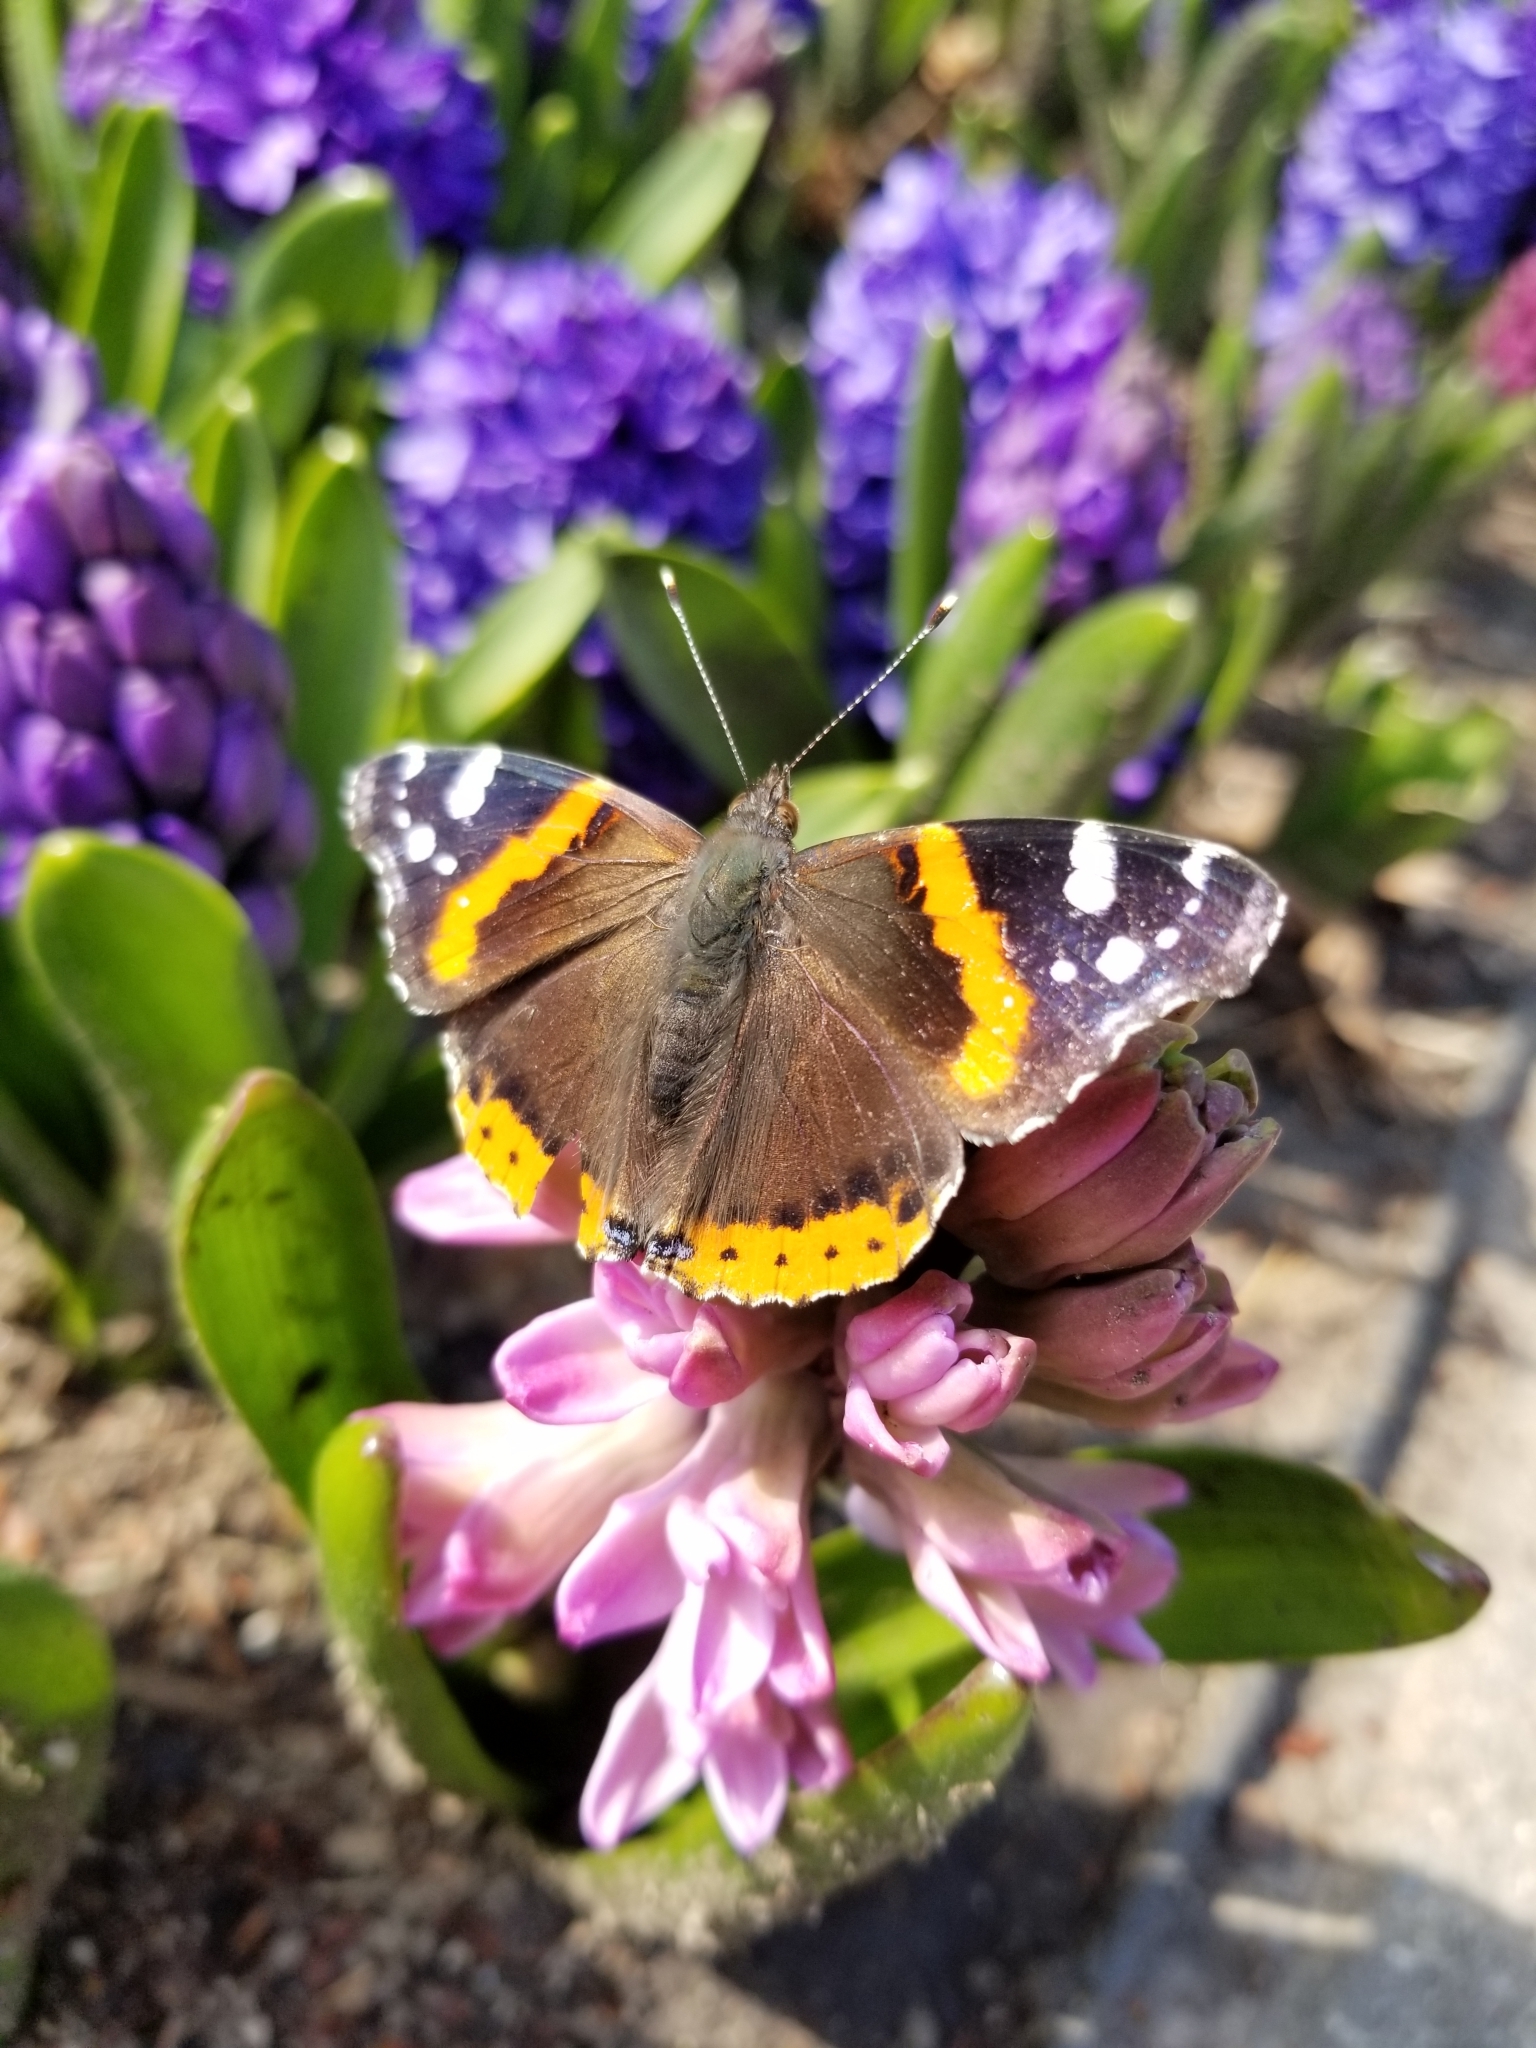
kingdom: Animalia
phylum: Arthropoda
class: Insecta
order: Lepidoptera
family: Nymphalidae
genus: Vanessa
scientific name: Vanessa atalanta
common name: Red admiral
